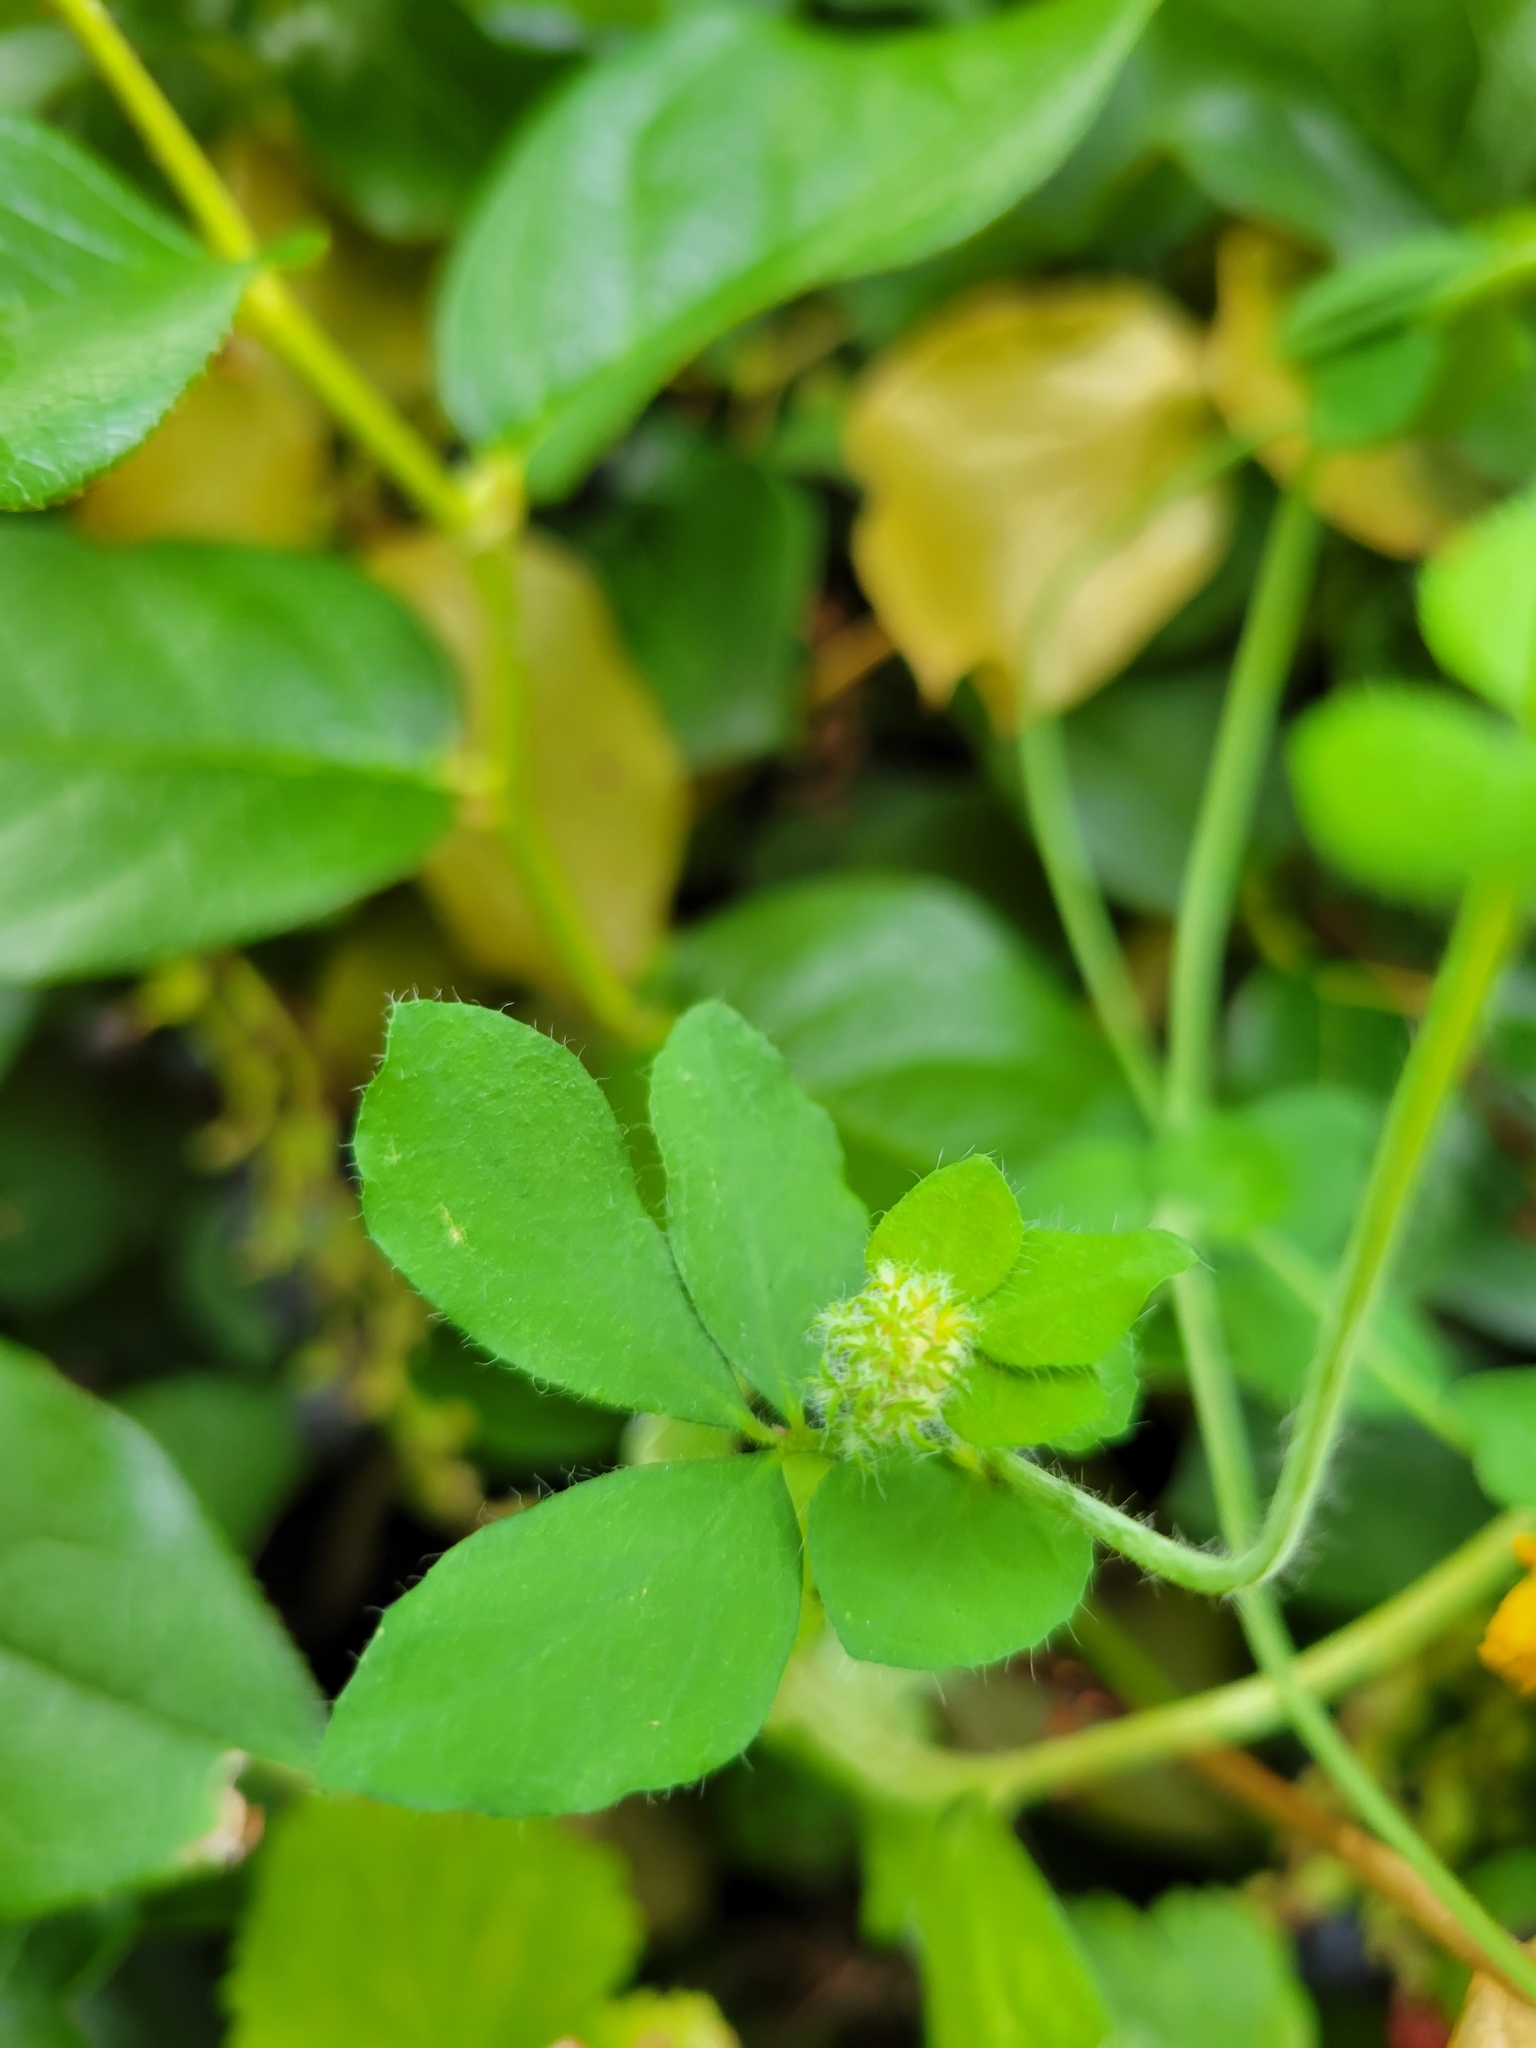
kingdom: Plantae
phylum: Tracheophyta
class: Magnoliopsida
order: Fabales
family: Fabaceae
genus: Lotus
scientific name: Lotus pedunculatus
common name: Greater birdsfoot-trefoil
